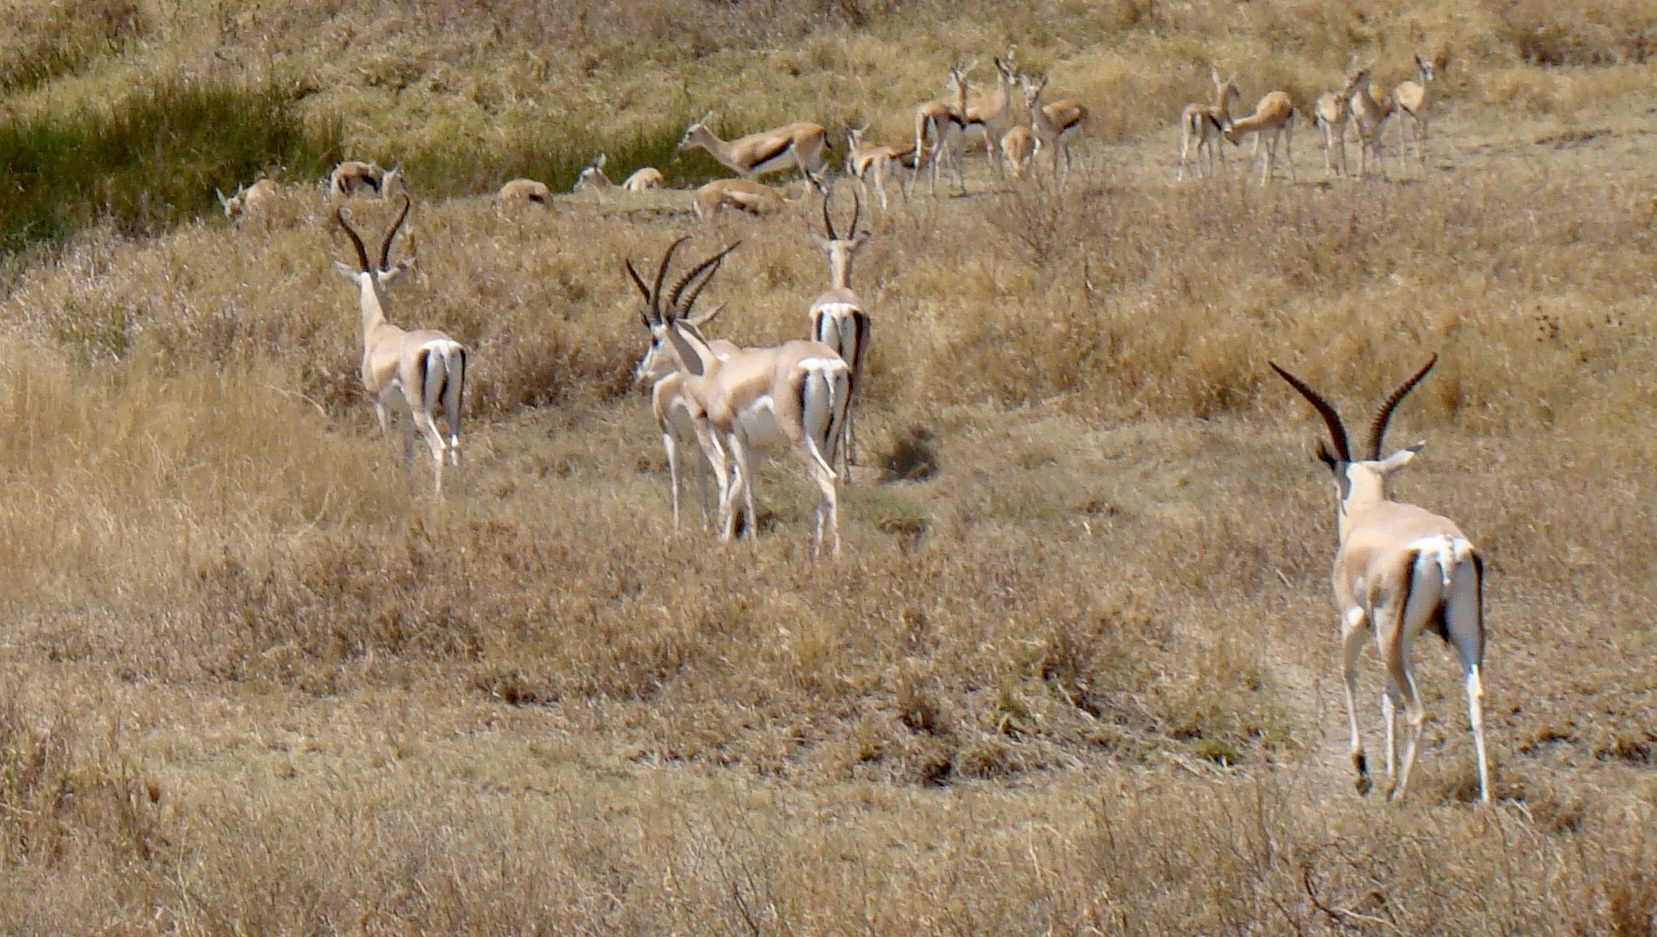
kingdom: Animalia
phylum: Chordata
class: Mammalia
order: Artiodactyla
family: Bovidae
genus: Nanger
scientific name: Nanger granti
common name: Grant's gazelle
